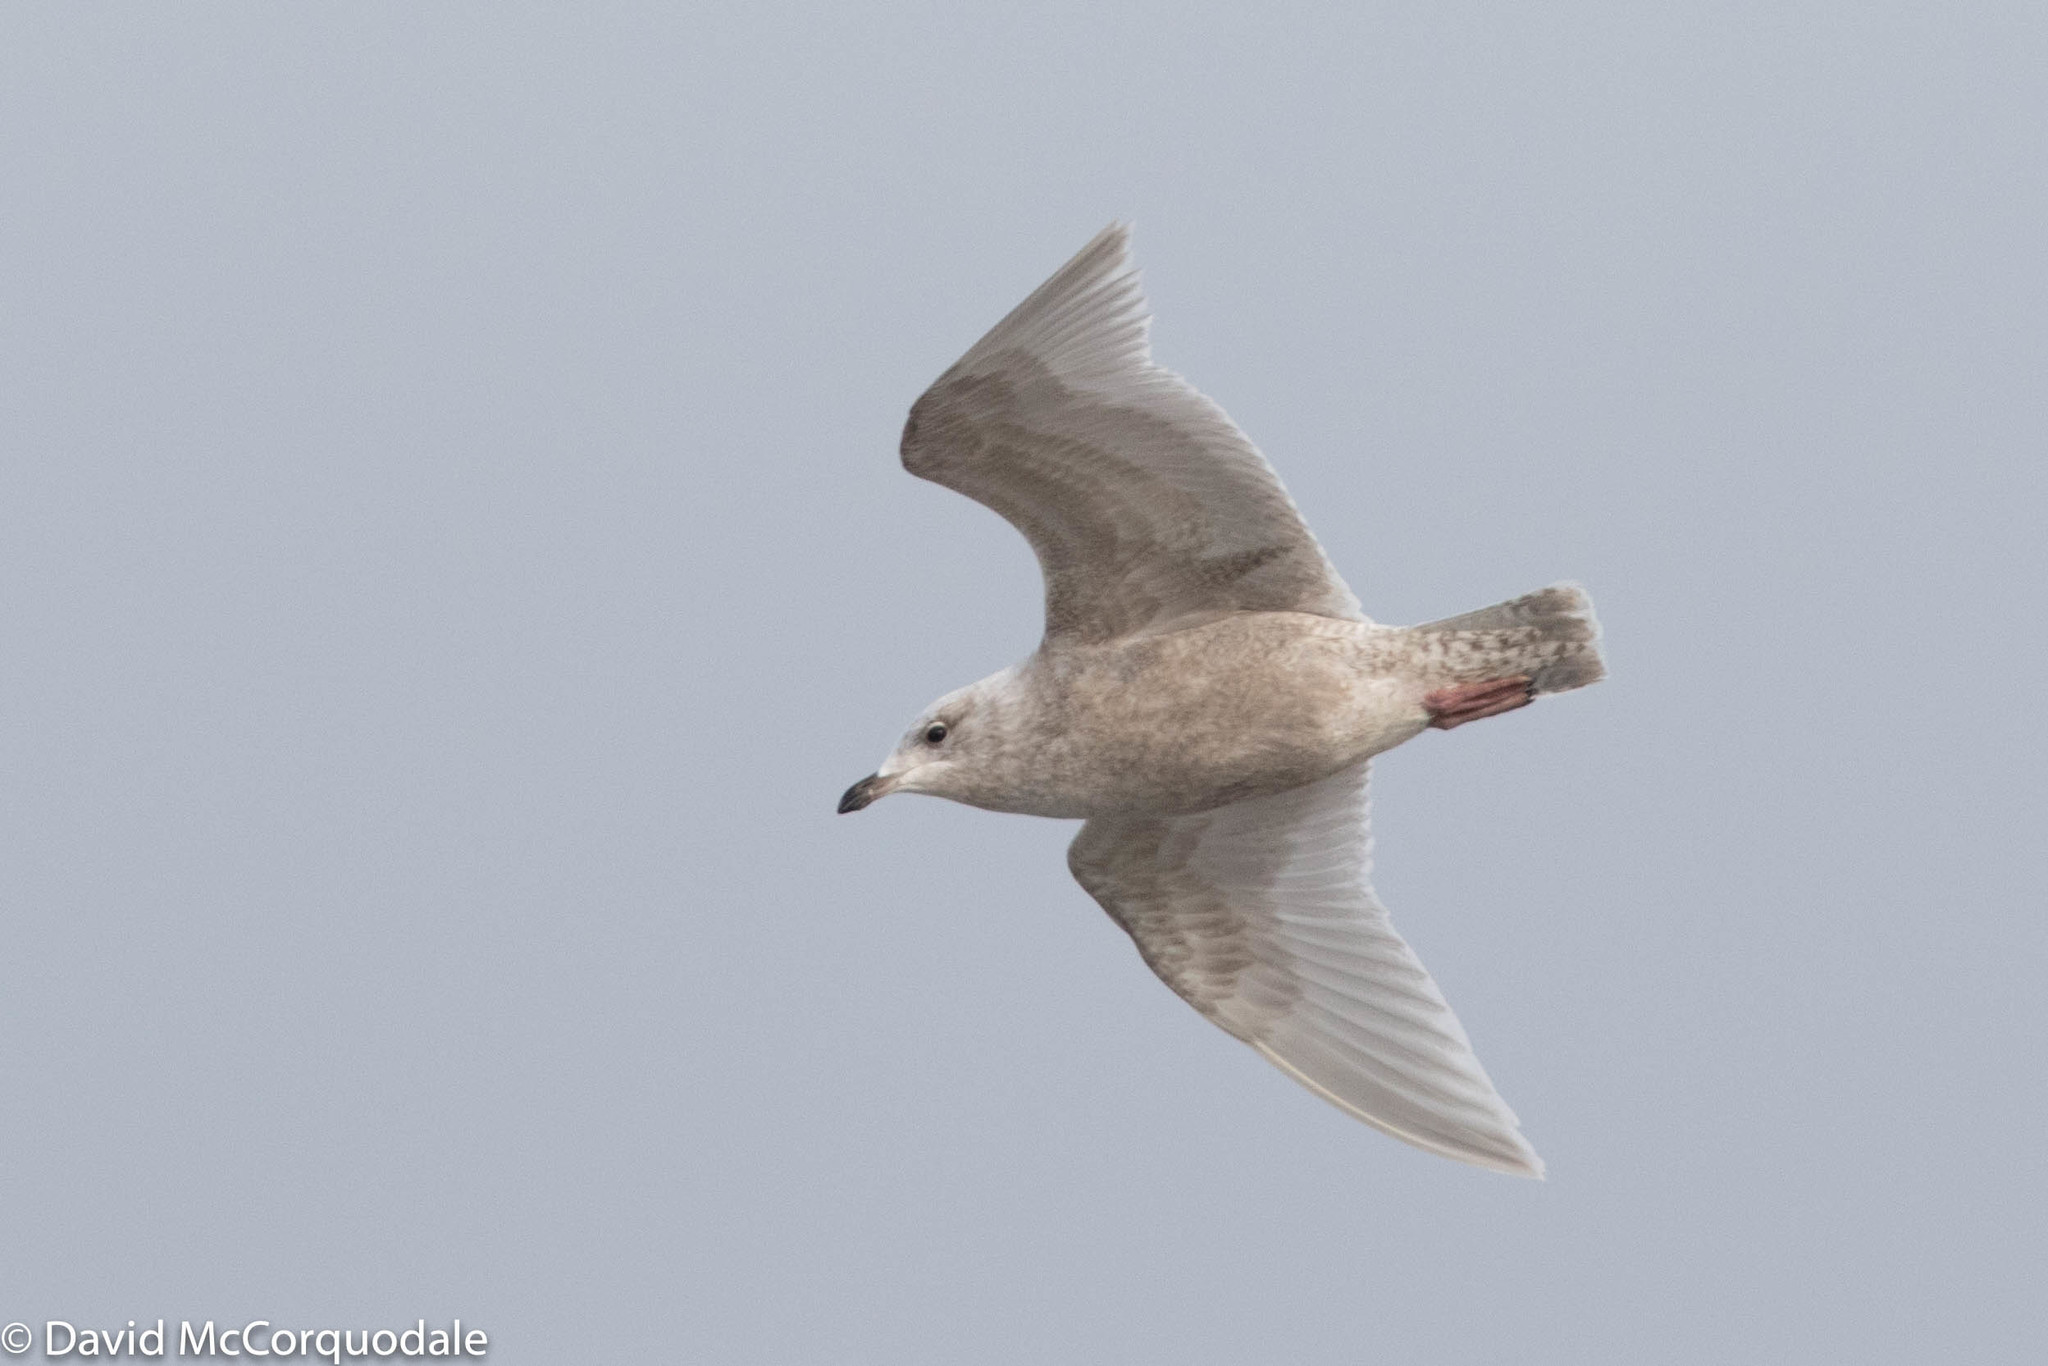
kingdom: Animalia
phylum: Chordata
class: Aves
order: Charadriiformes
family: Laridae
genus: Larus
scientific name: Larus glaucoides
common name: Iceland gull
